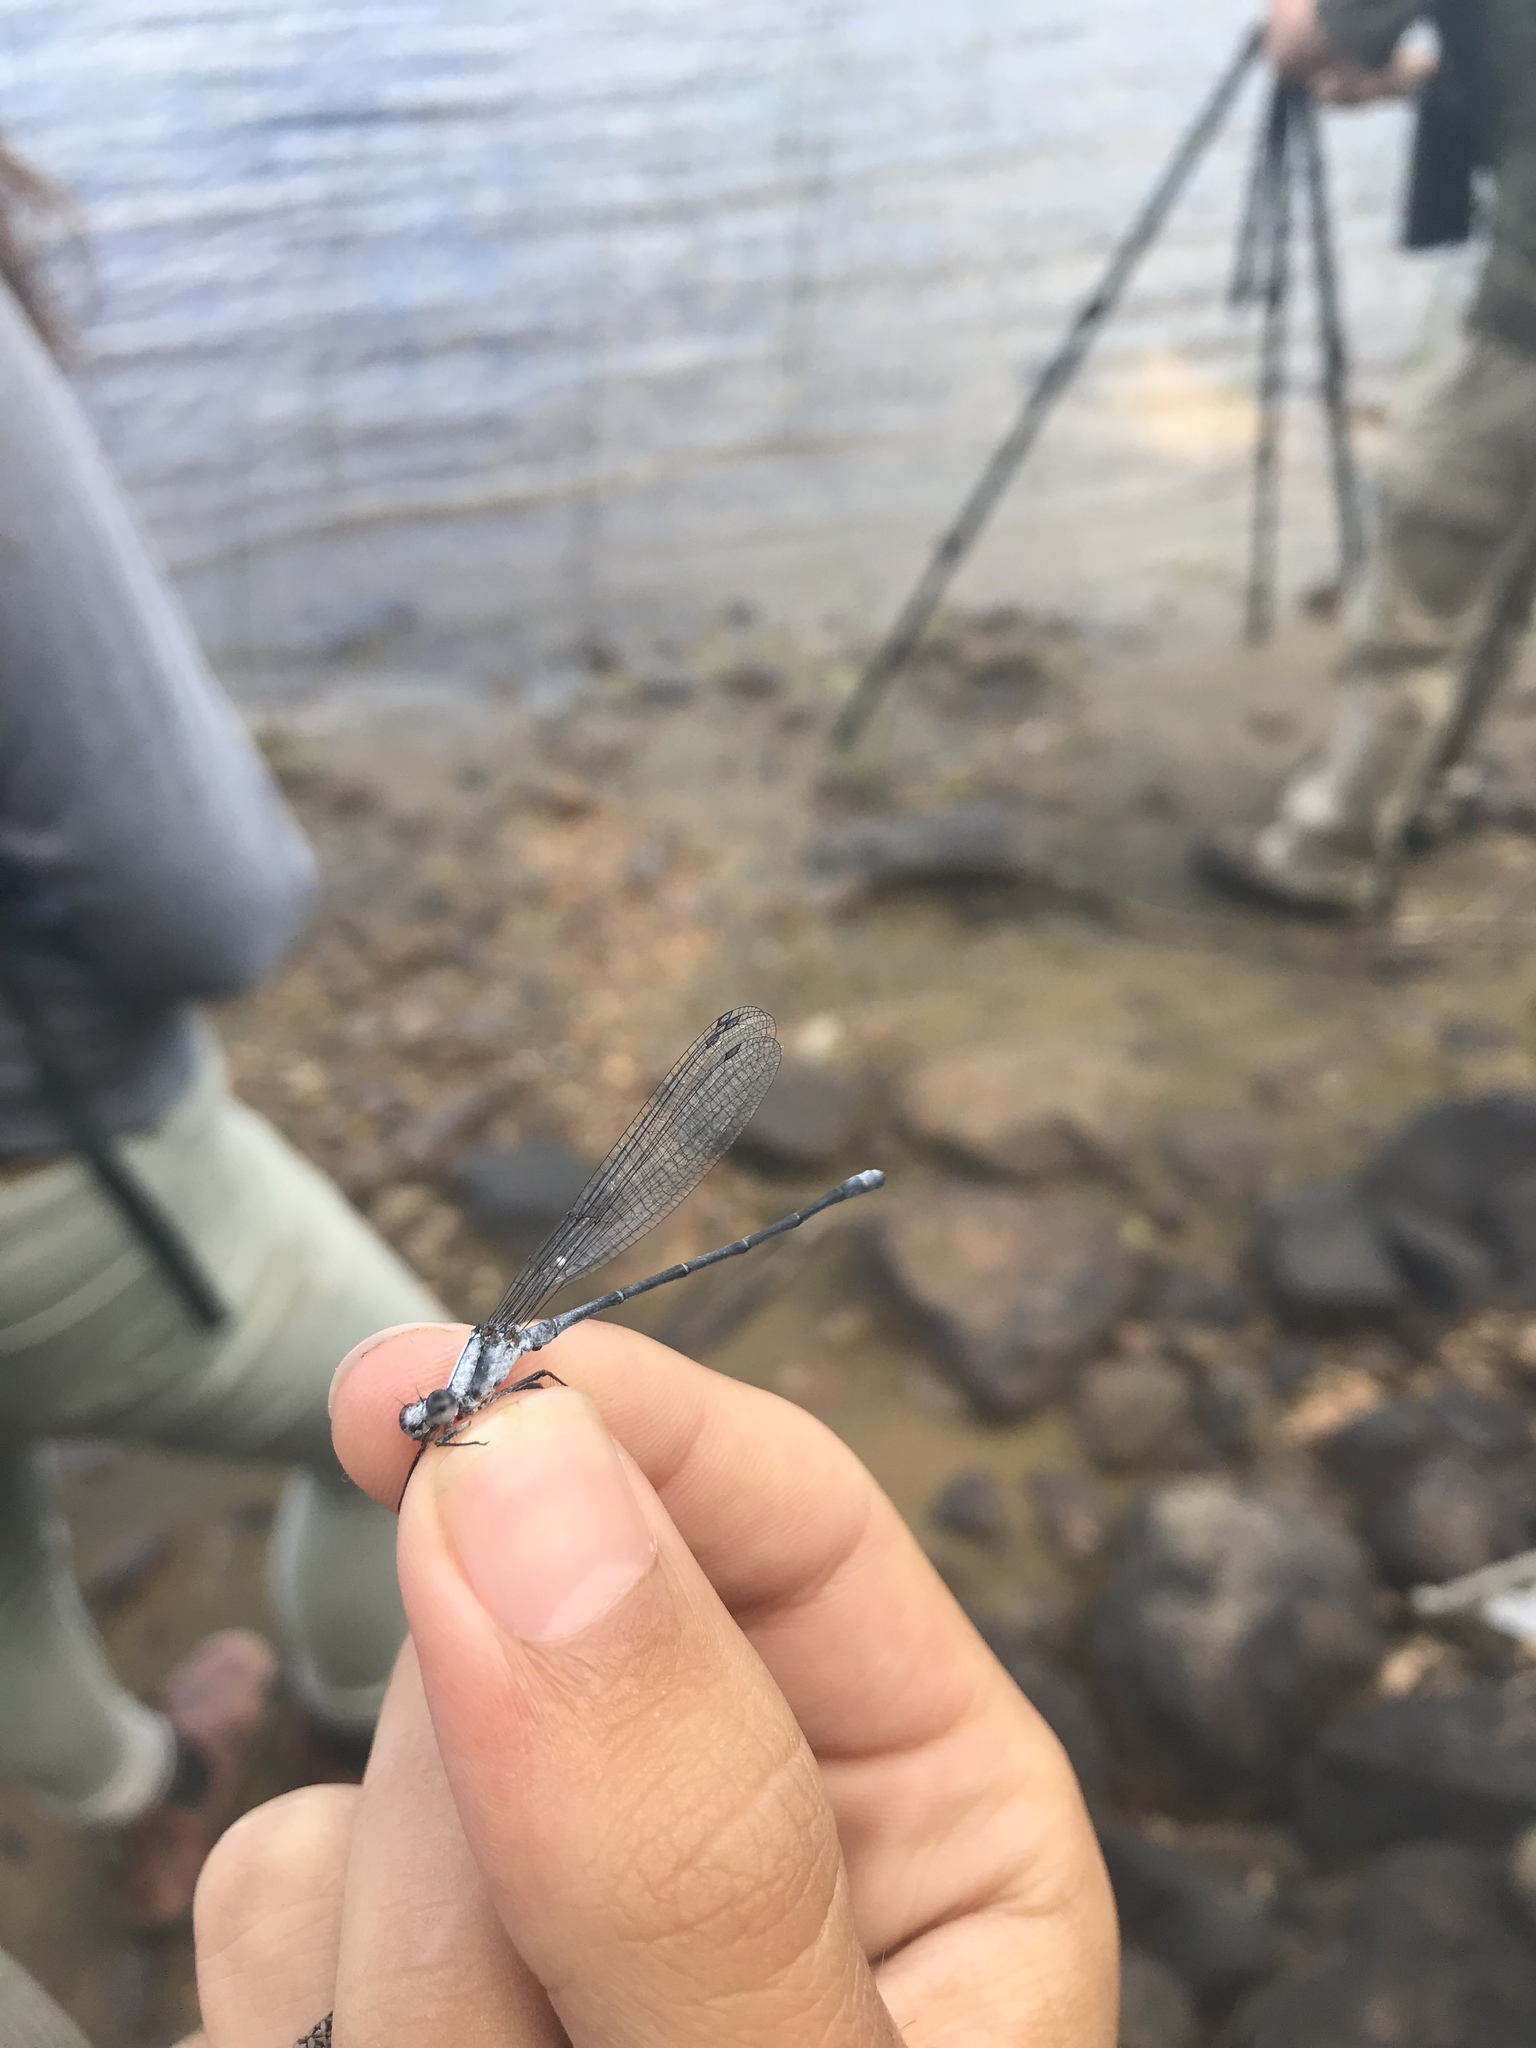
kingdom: Animalia
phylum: Arthropoda
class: Insecta
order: Odonata
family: Coenagrionidae
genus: Argia
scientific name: Argia moesta
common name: Powdered dancer
